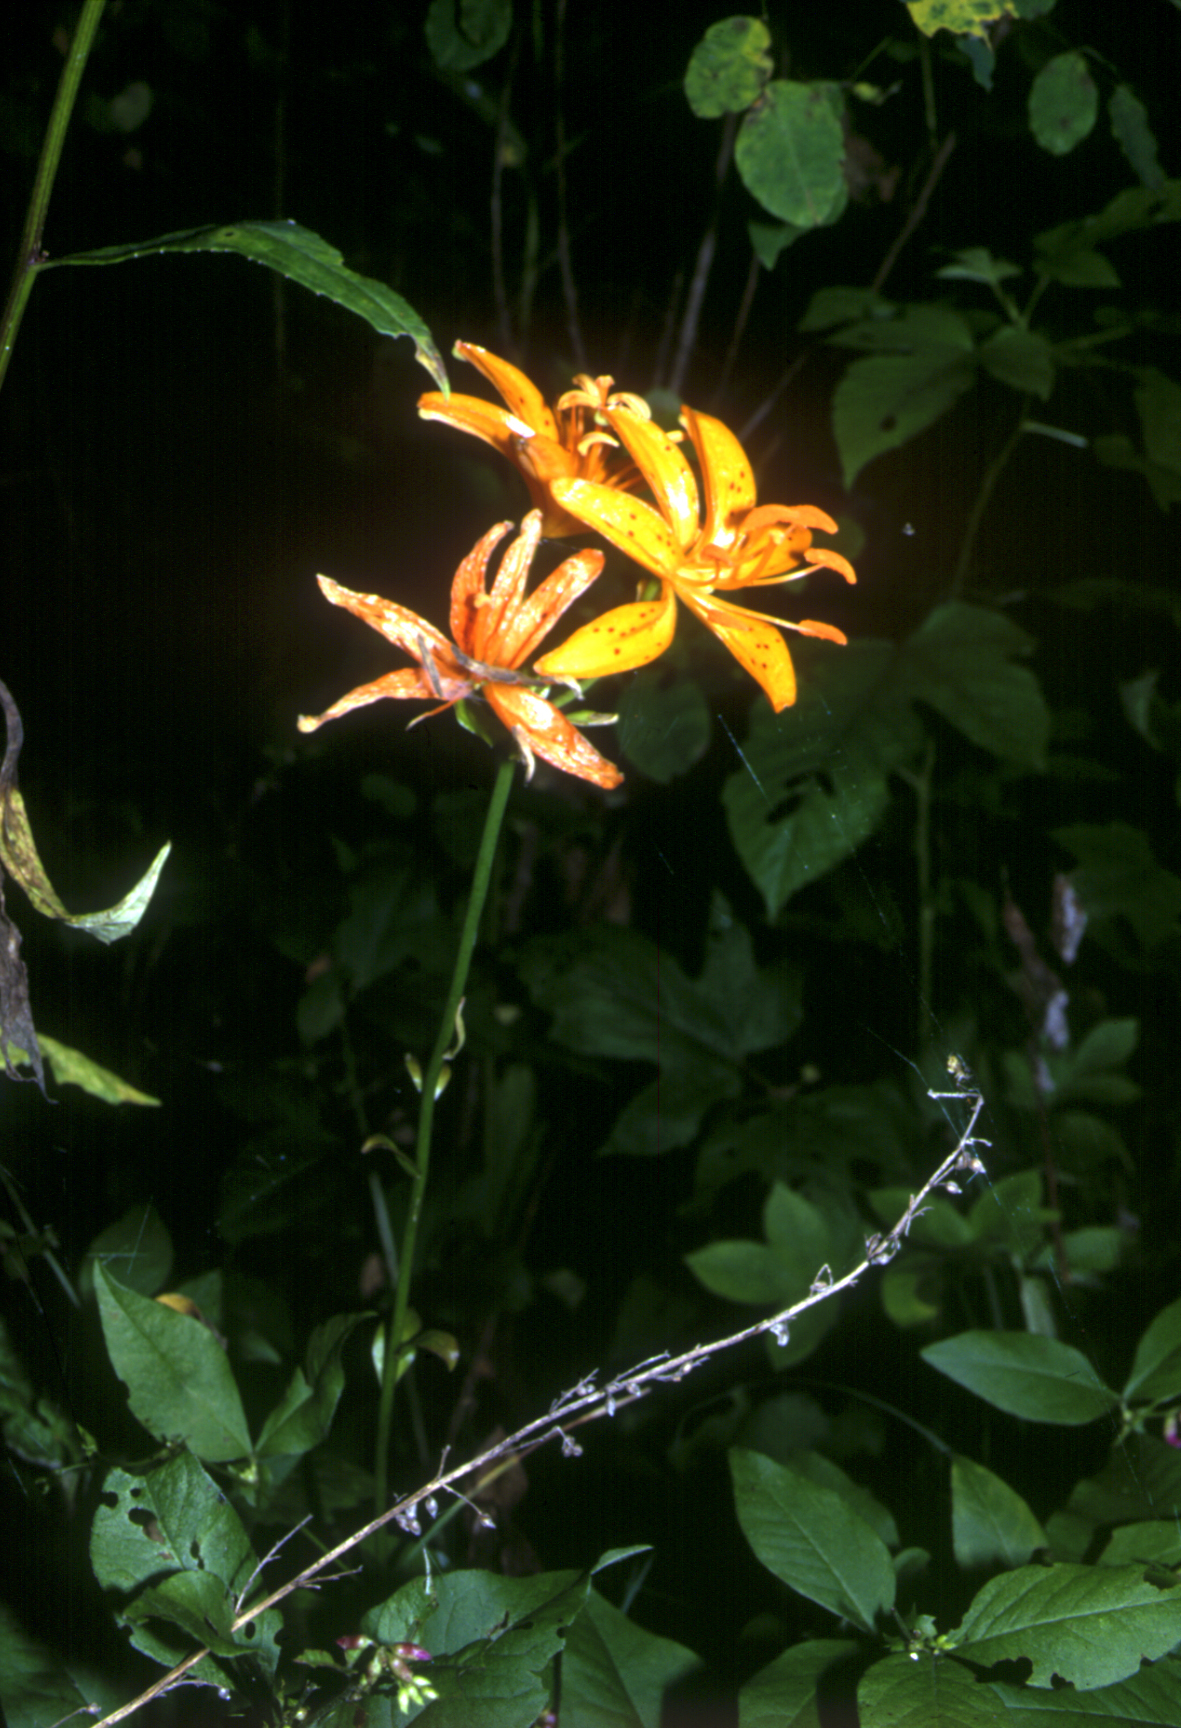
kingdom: Plantae
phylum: Tracheophyta
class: Liliopsida
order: Liliales
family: Liliaceae
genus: Lilium
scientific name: Lilium distichum
